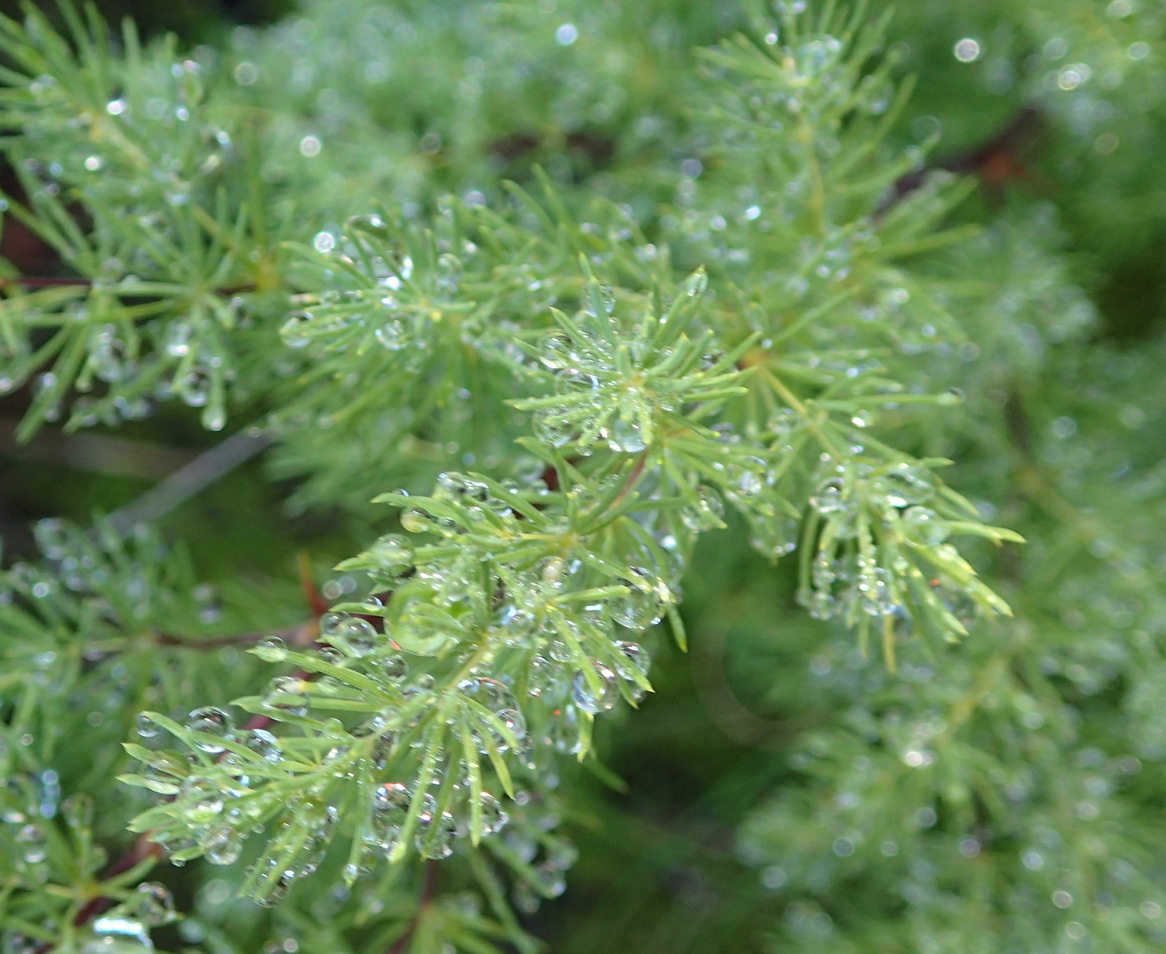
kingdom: Plantae
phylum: Tracheophyta
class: Liliopsida
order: Asparagales
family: Asparagaceae
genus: Asparagus
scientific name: Asparagus rubicundus
